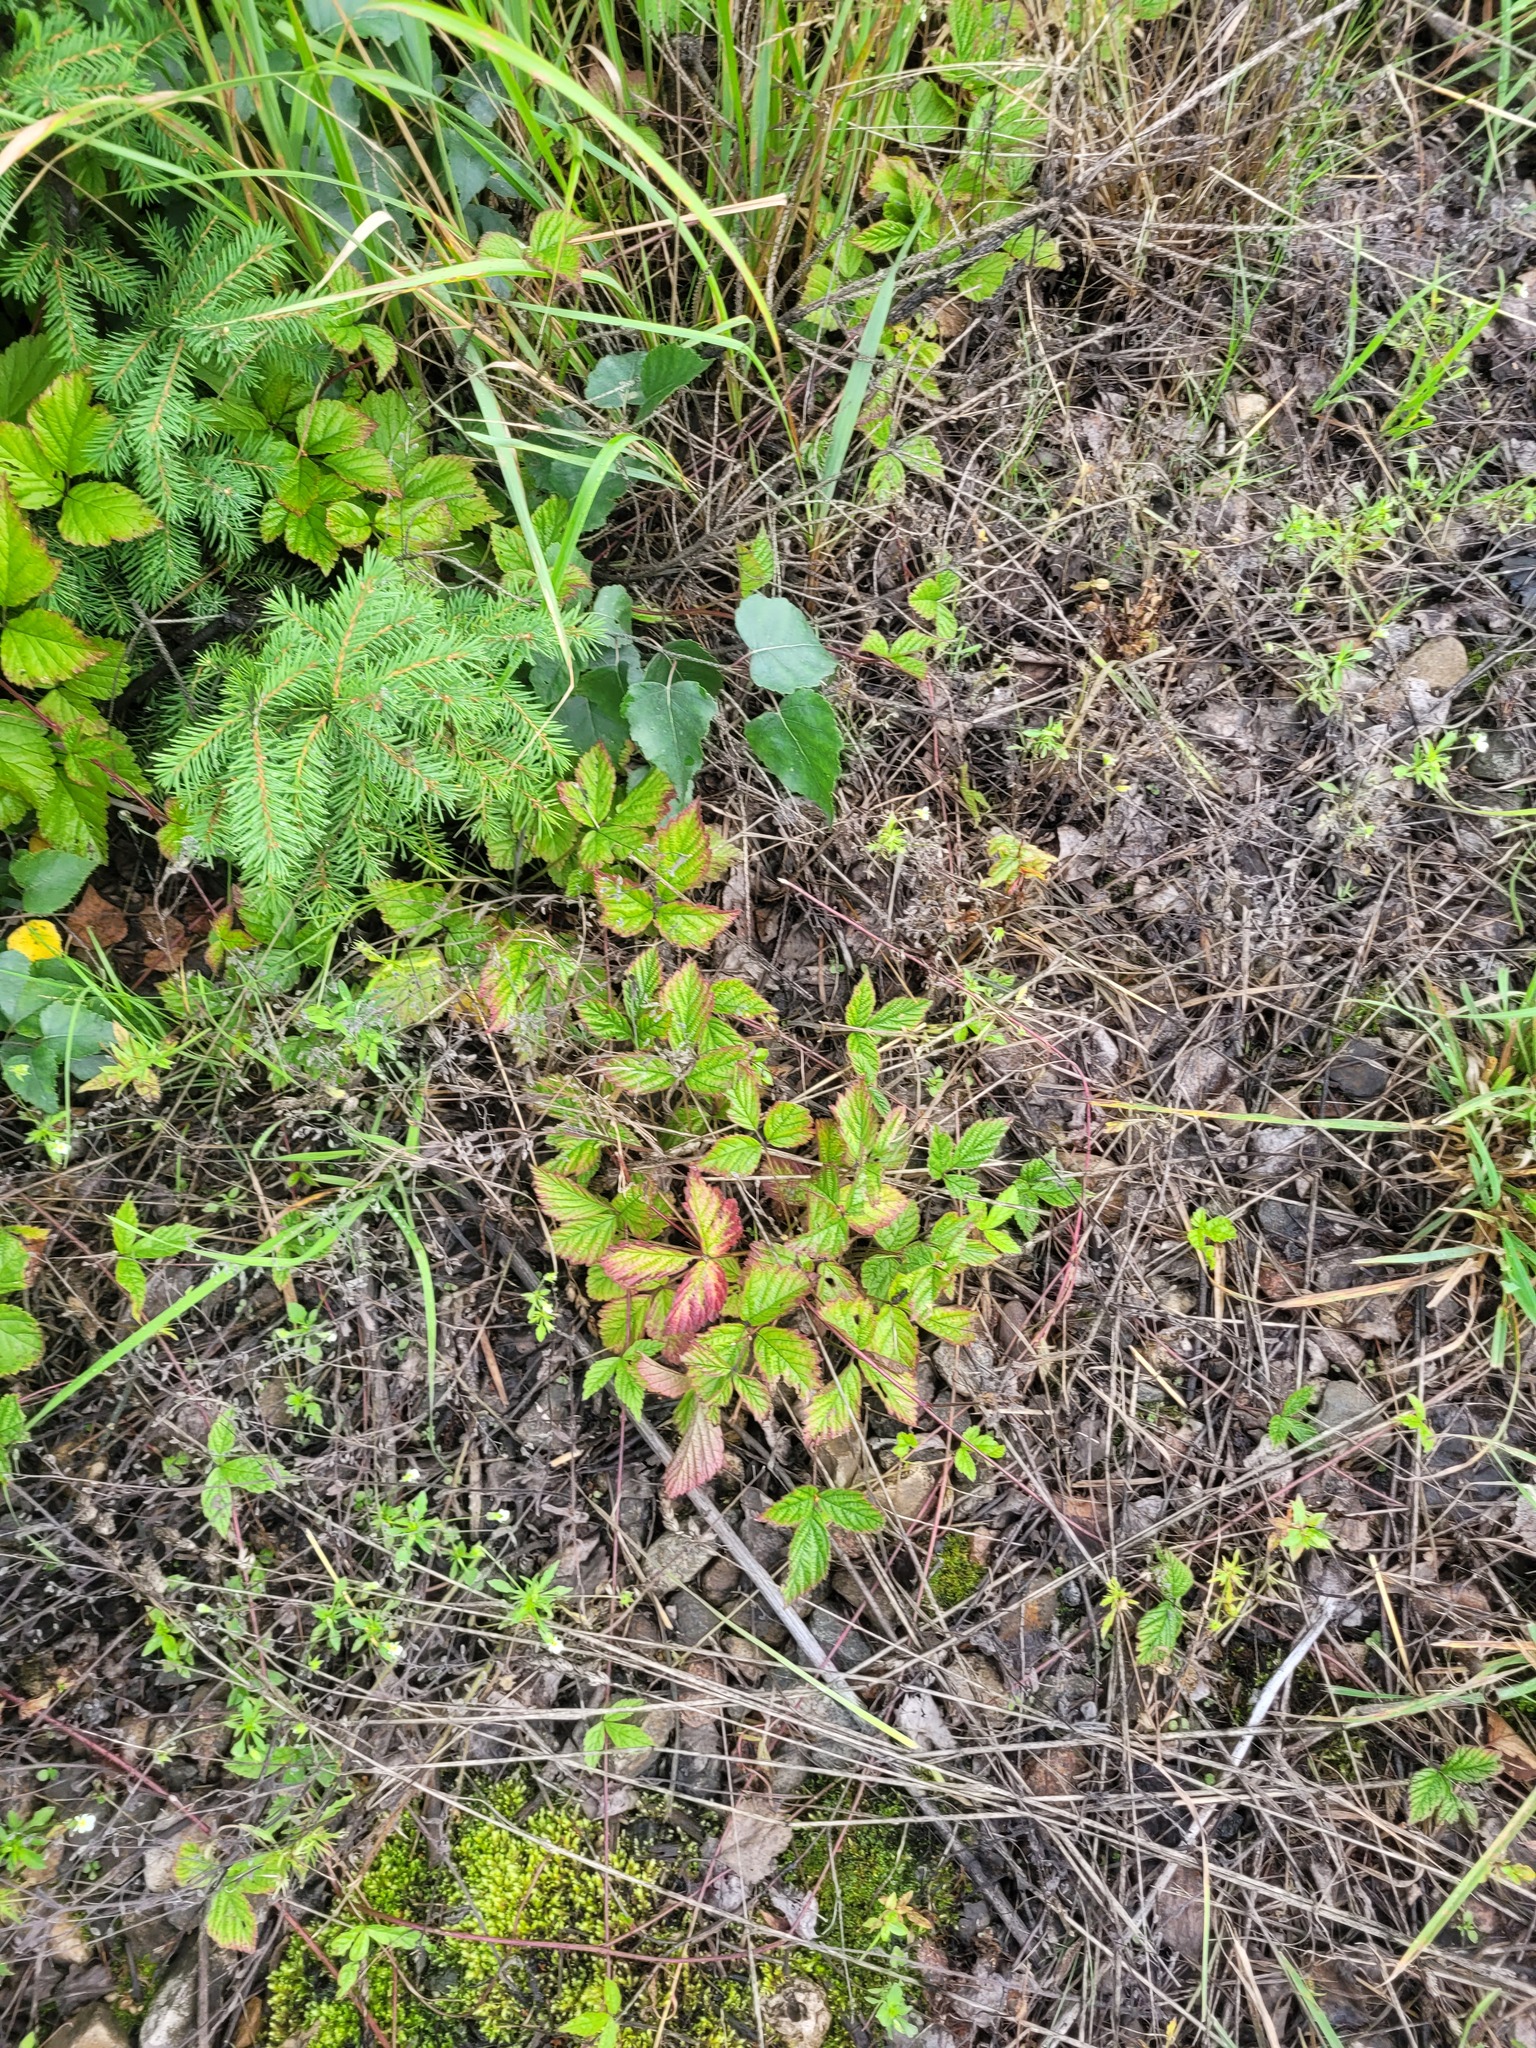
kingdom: Plantae
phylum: Tracheophyta
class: Magnoliopsida
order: Rosales
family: Rosaceae
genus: Rubus
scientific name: Rubus saxatilis
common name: Stone bramble
